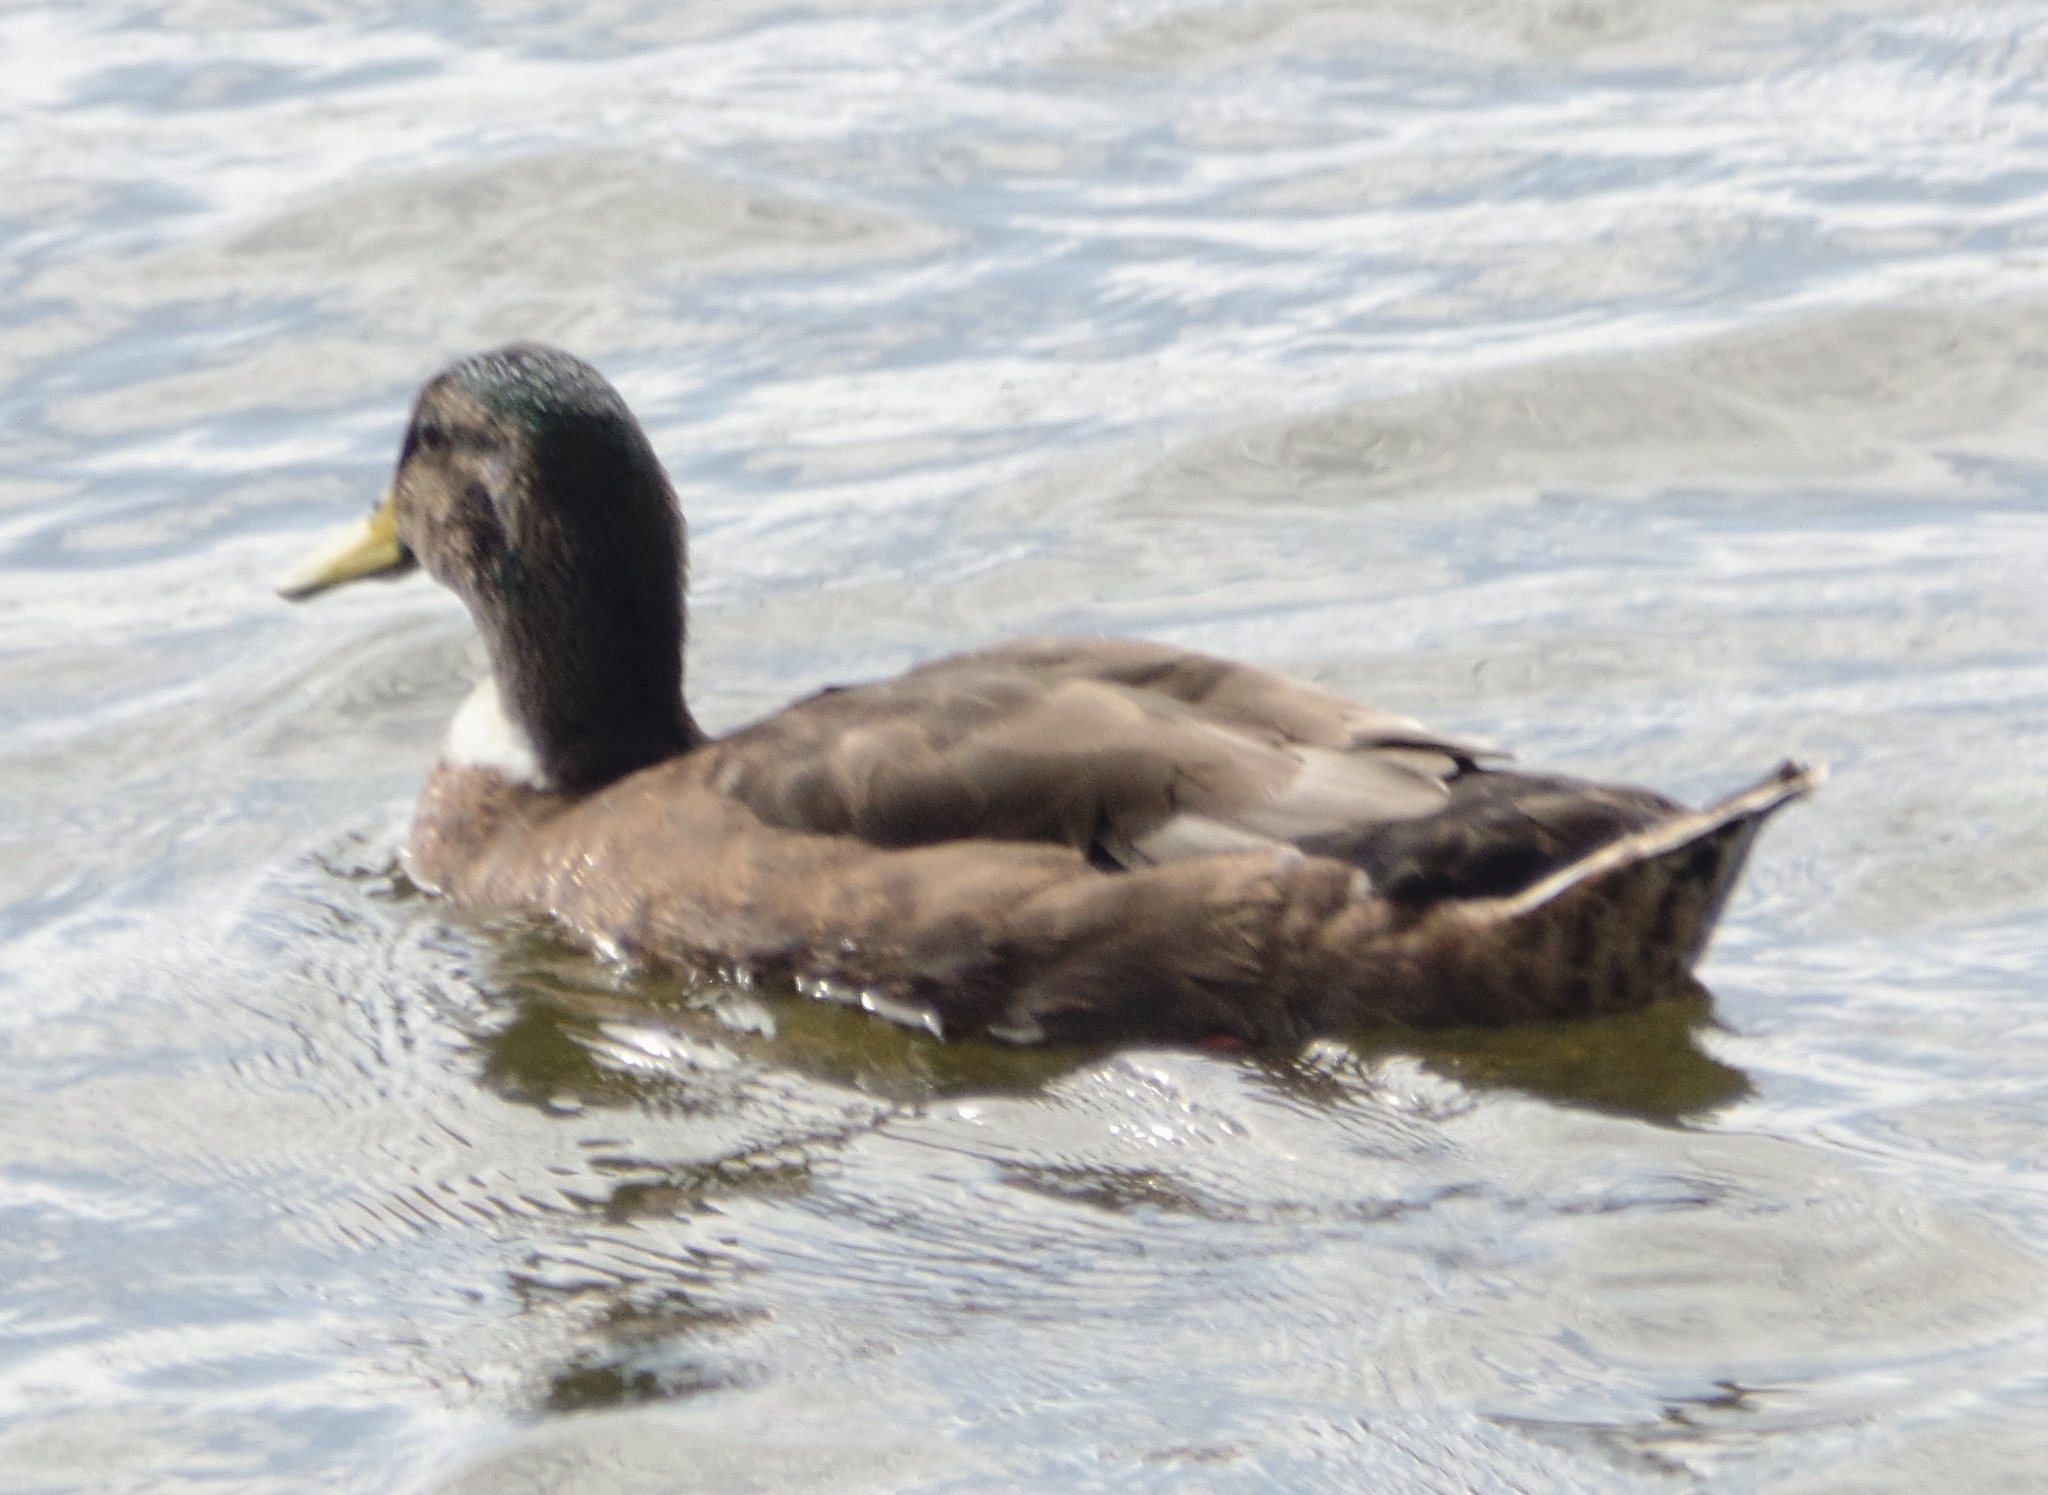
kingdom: Animalia
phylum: Chordata
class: Aves
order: Anseriformes
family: Anatidae
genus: Anas
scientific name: Anas platyrhynchos
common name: Mallard
